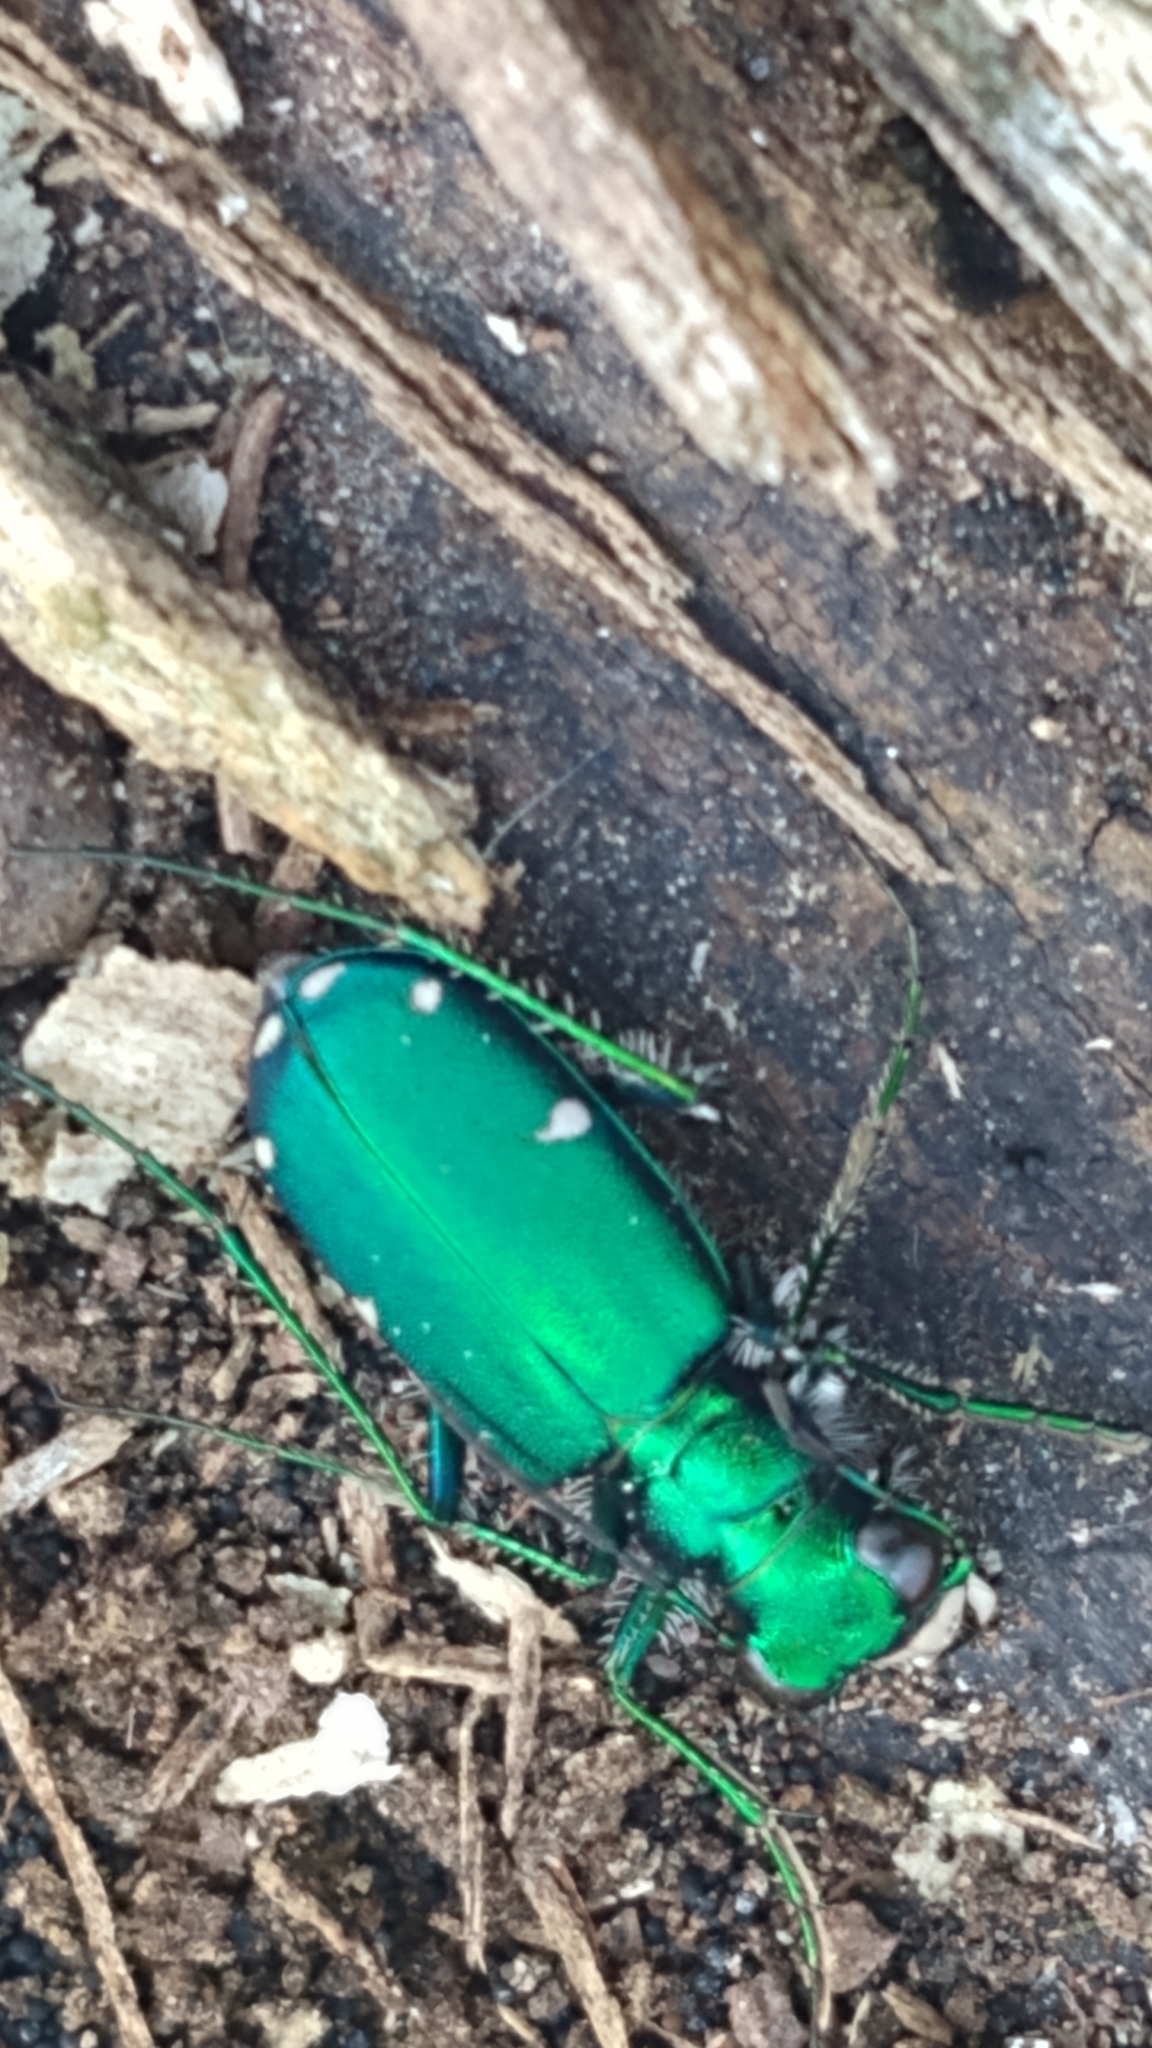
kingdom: Animalia
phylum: Arthropoda
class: Insecta
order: Coleoptera
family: Carabidae
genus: Cicindela
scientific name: Cicindela sexguttata
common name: Six-spotted tiger beetle
